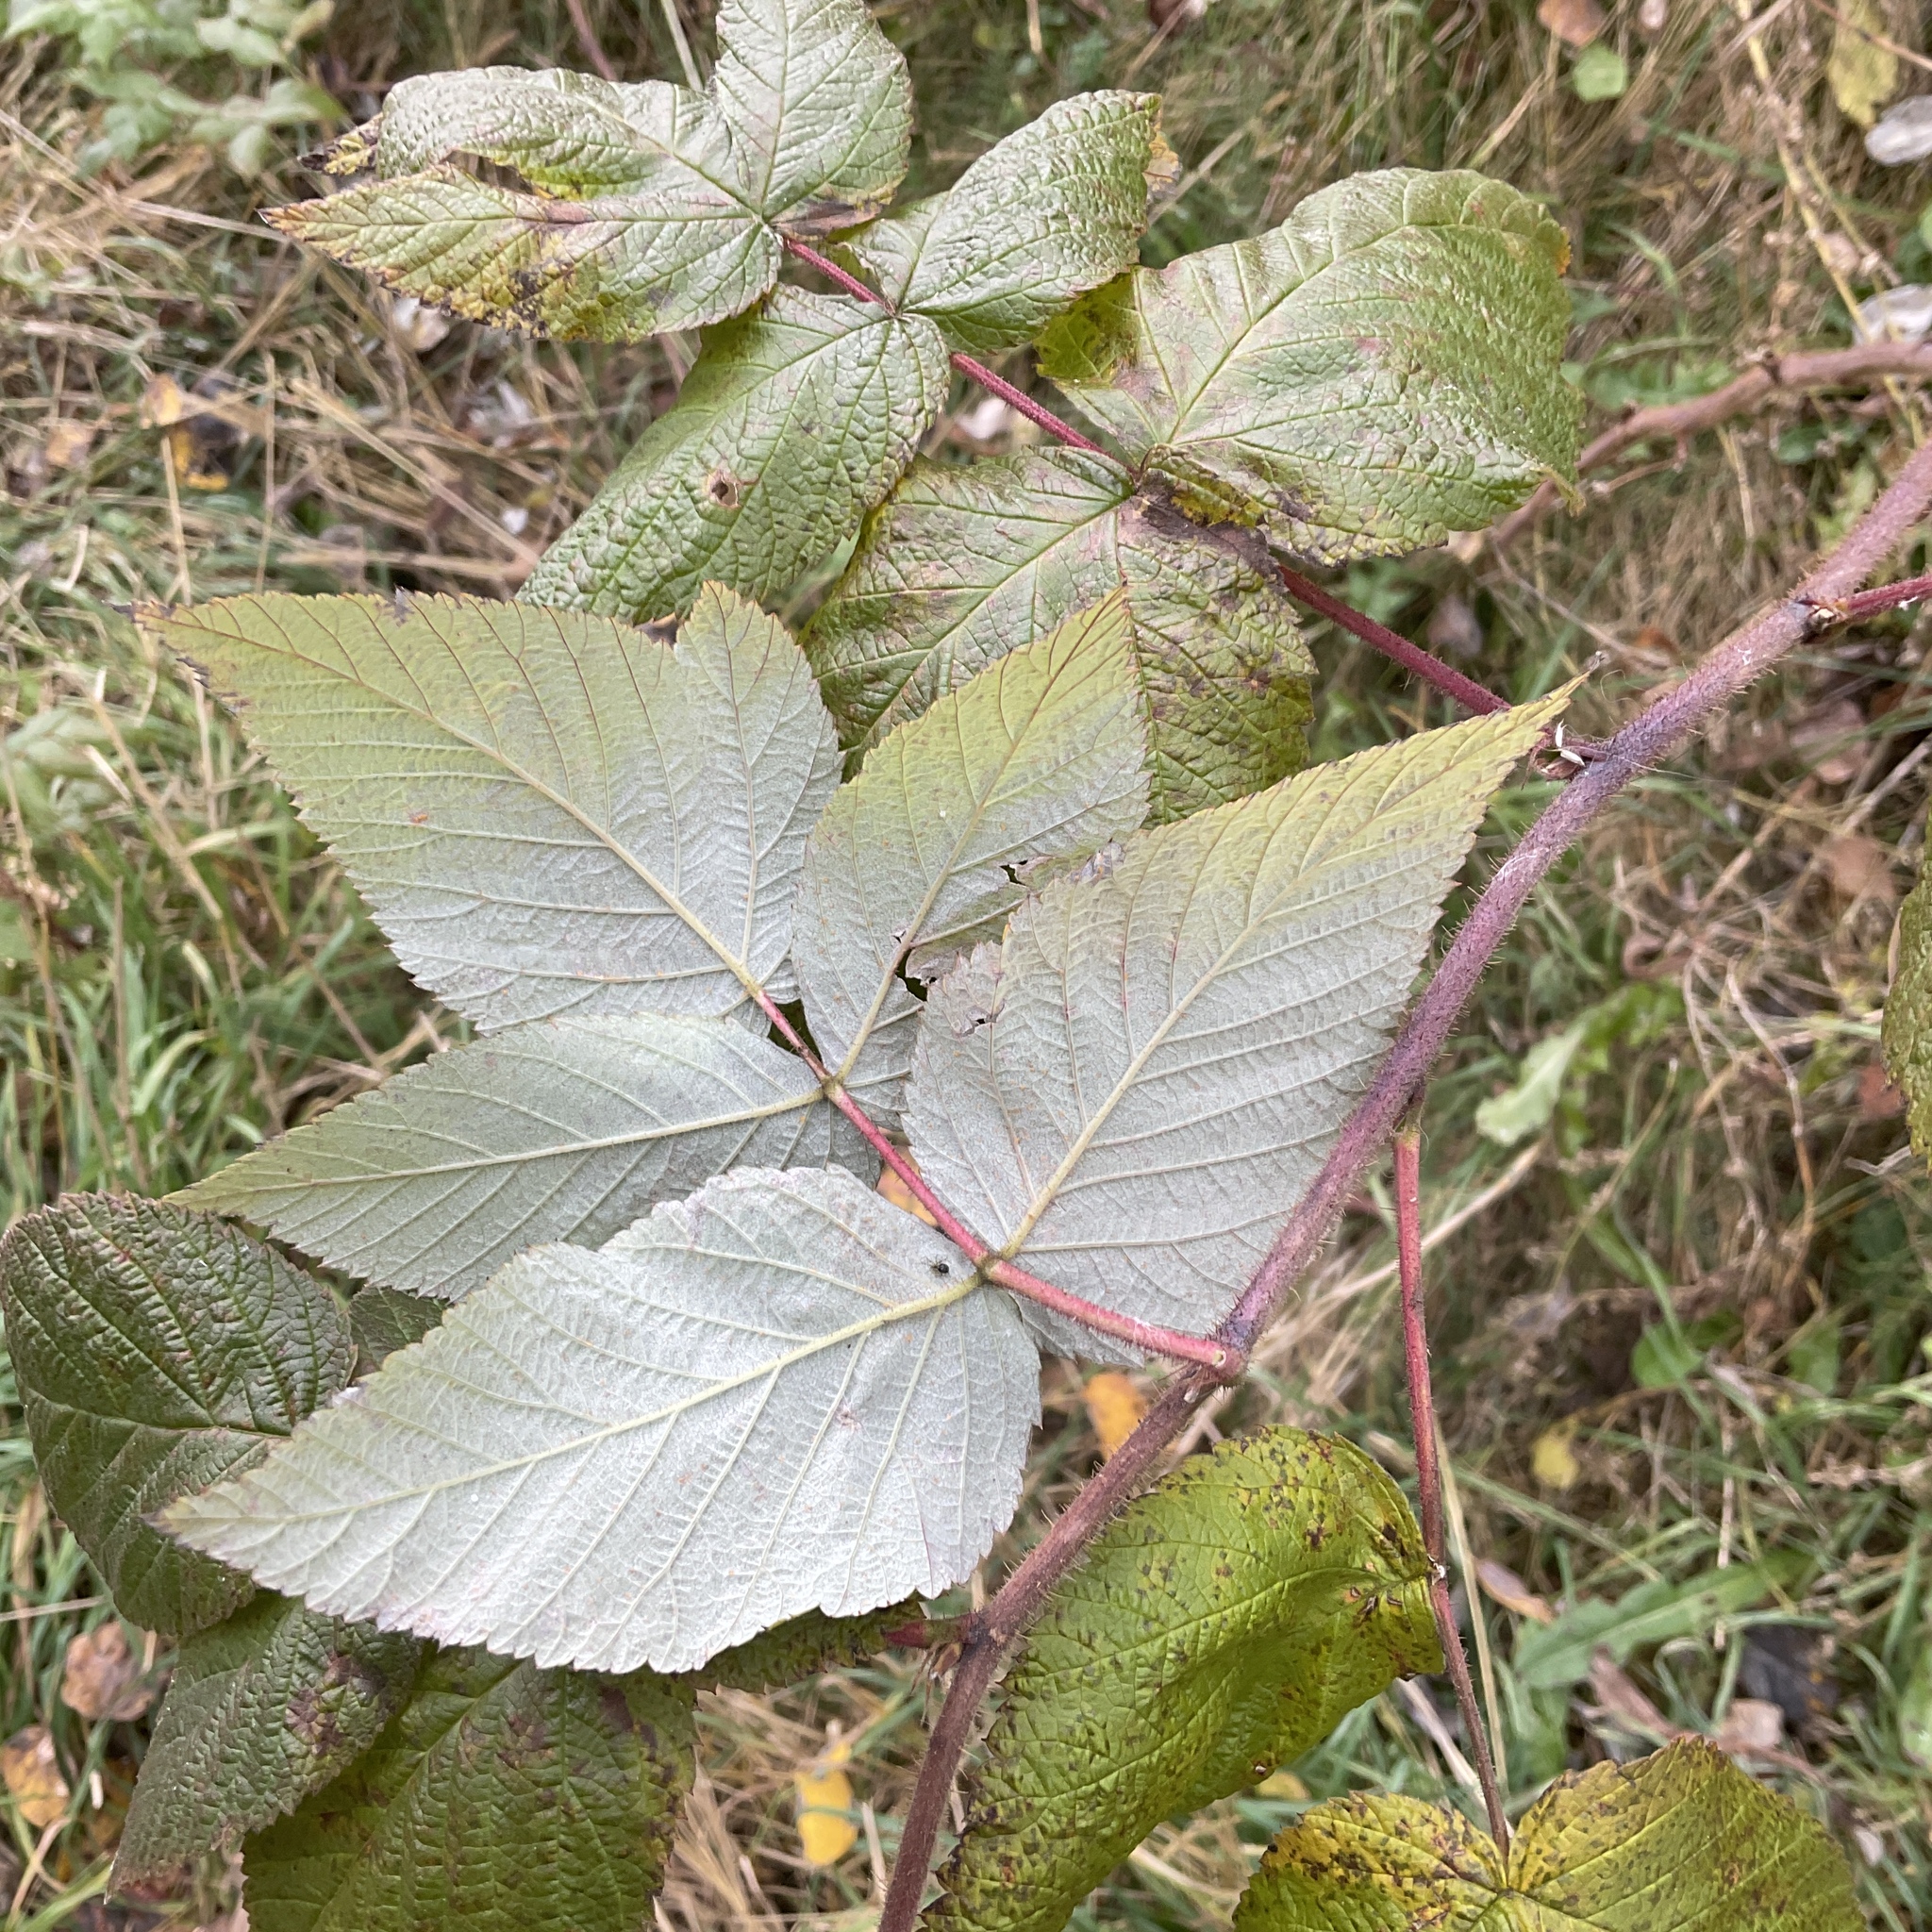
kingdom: Plantae
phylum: Tracheophyta
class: Magnoliopsida
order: Rosales
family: Rosaceae
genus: Rubus
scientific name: Rubus idaeus
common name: Raspberry
